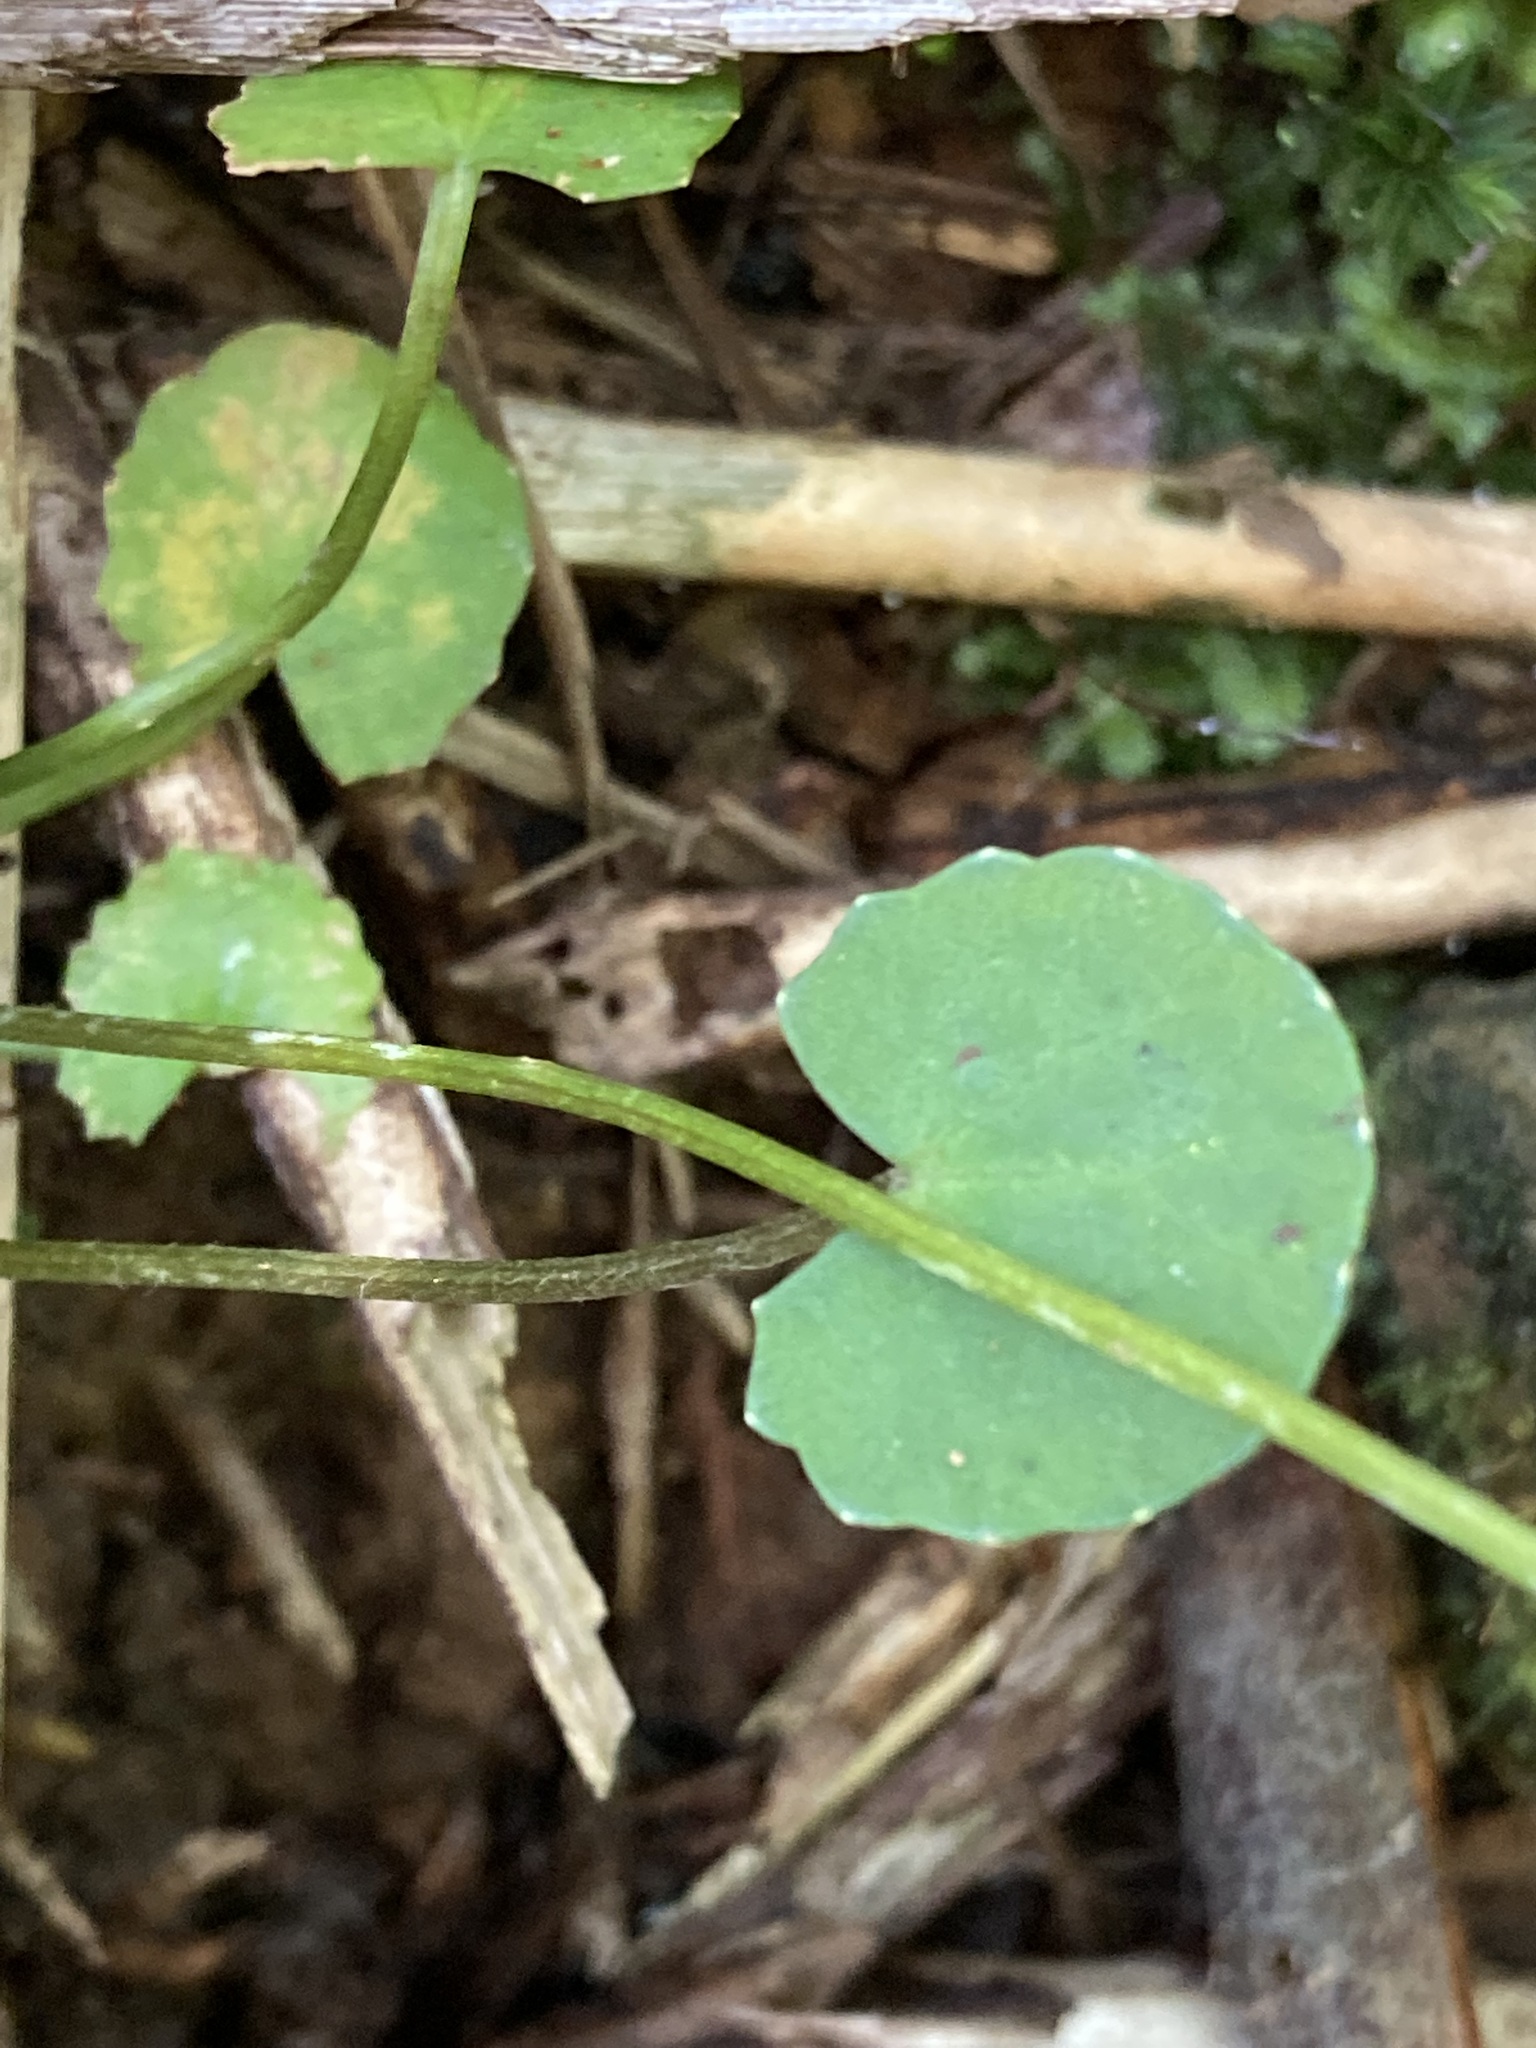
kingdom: Plantae
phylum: Tracheophyta
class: Magnoliopsida
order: Apiales
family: Apiaceae
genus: Centella
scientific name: Centella uniflora
